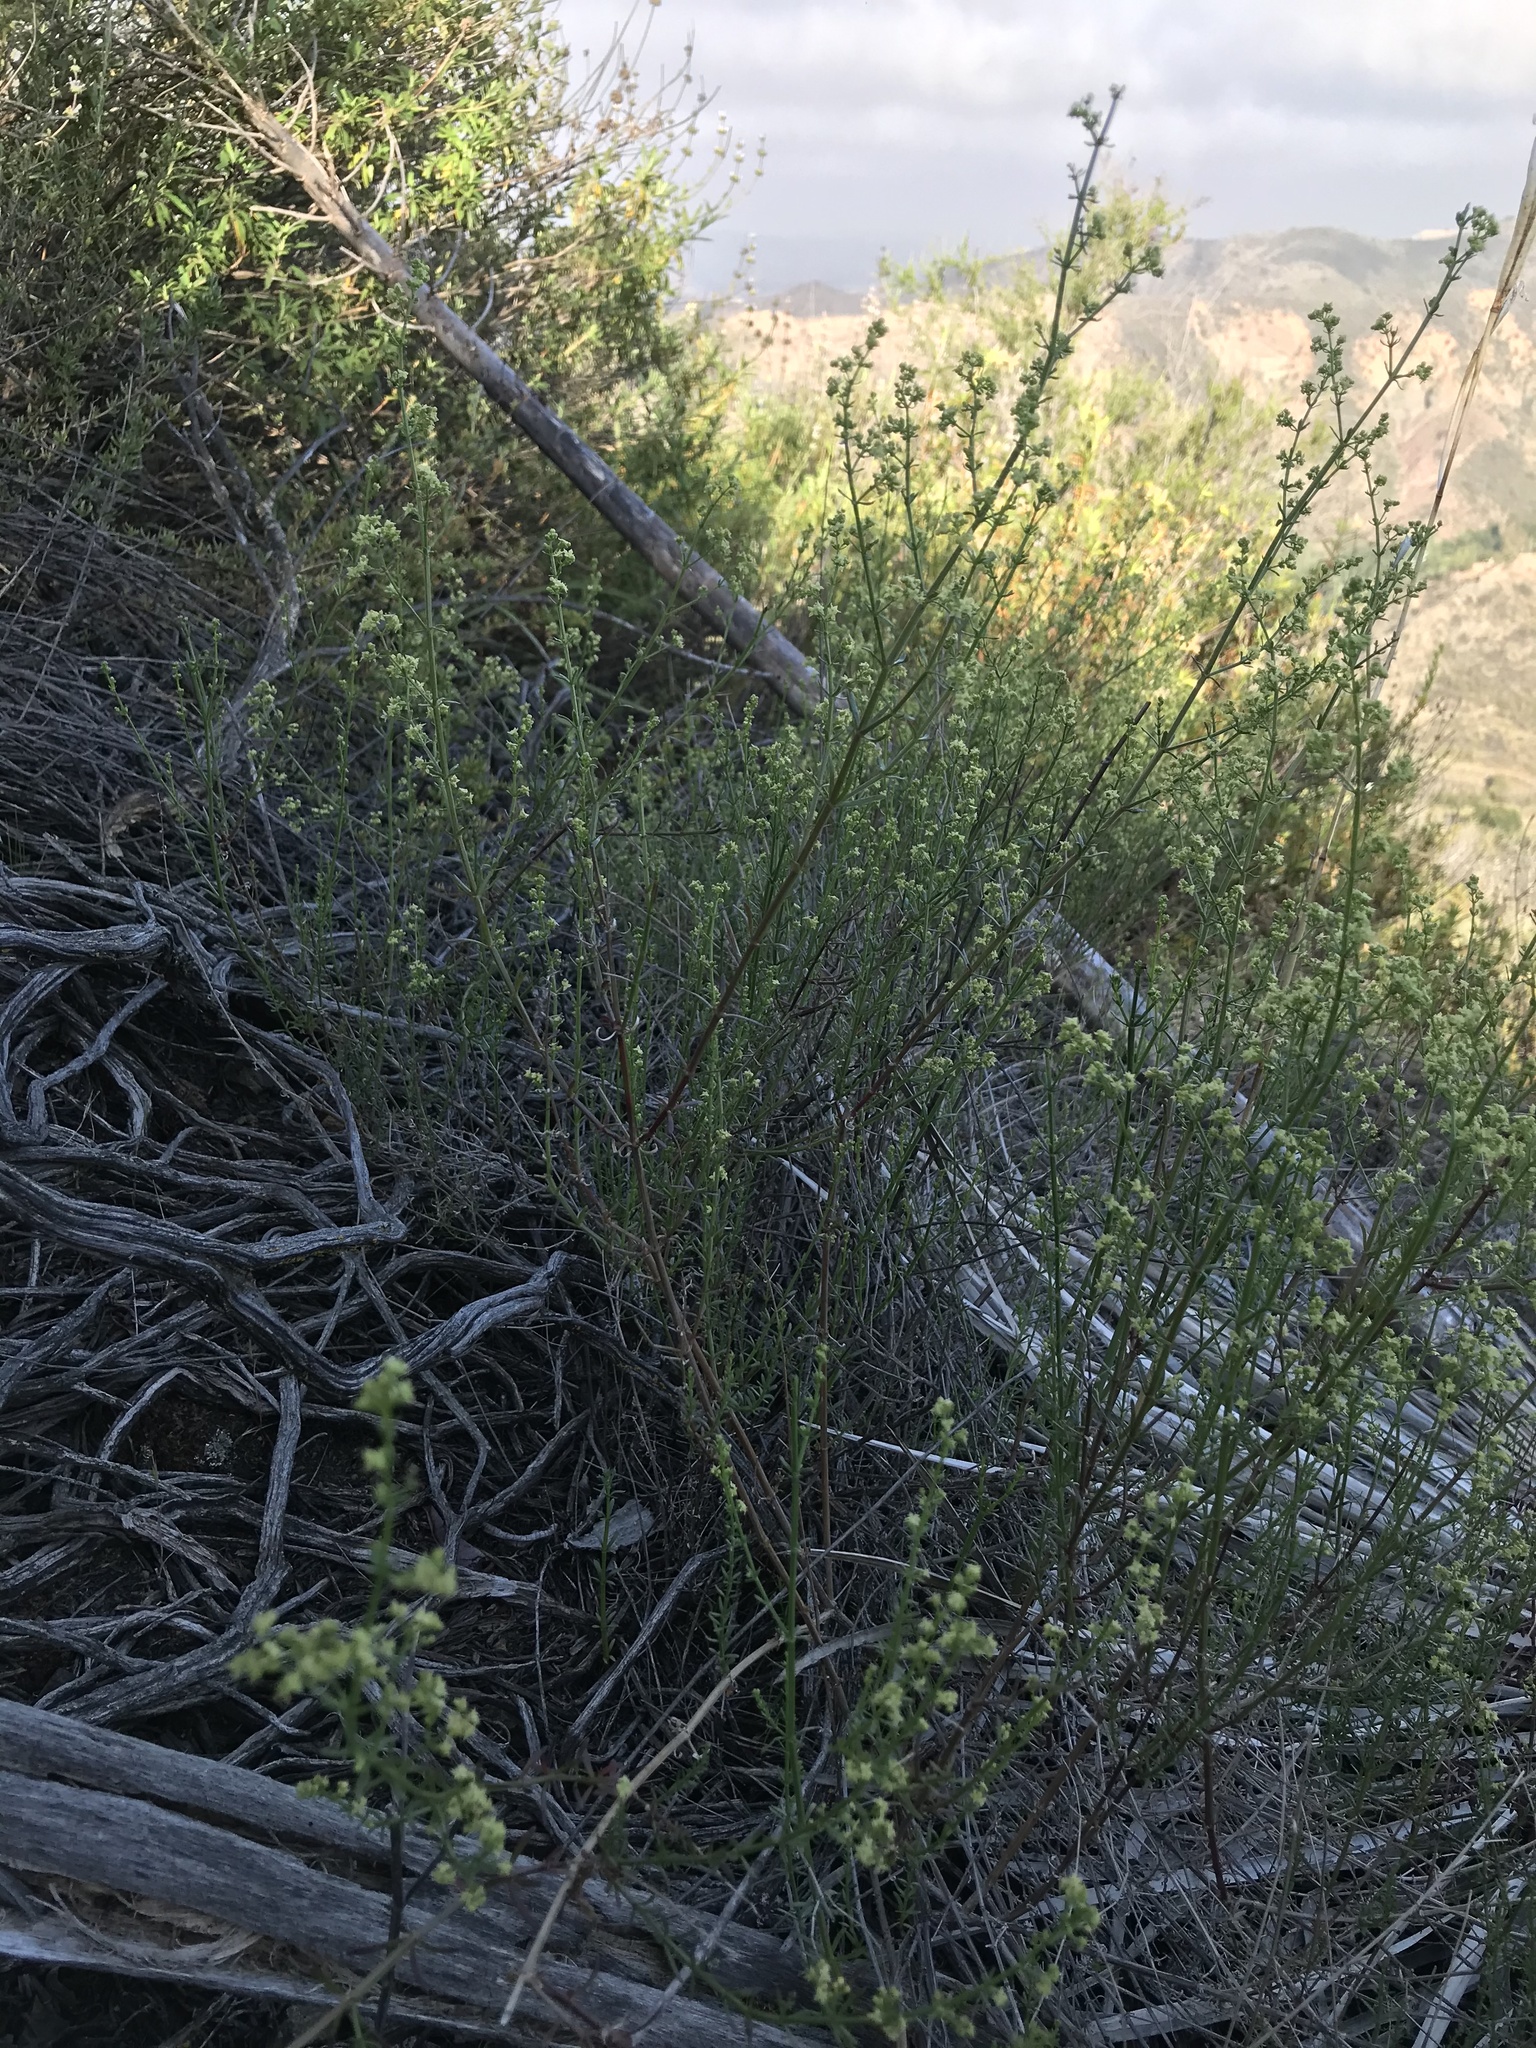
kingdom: Plantae
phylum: Tracheophyta
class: Magnoliopsida
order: Gentianales
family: Rubiaceae
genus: Galium
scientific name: Galium angustifolium
